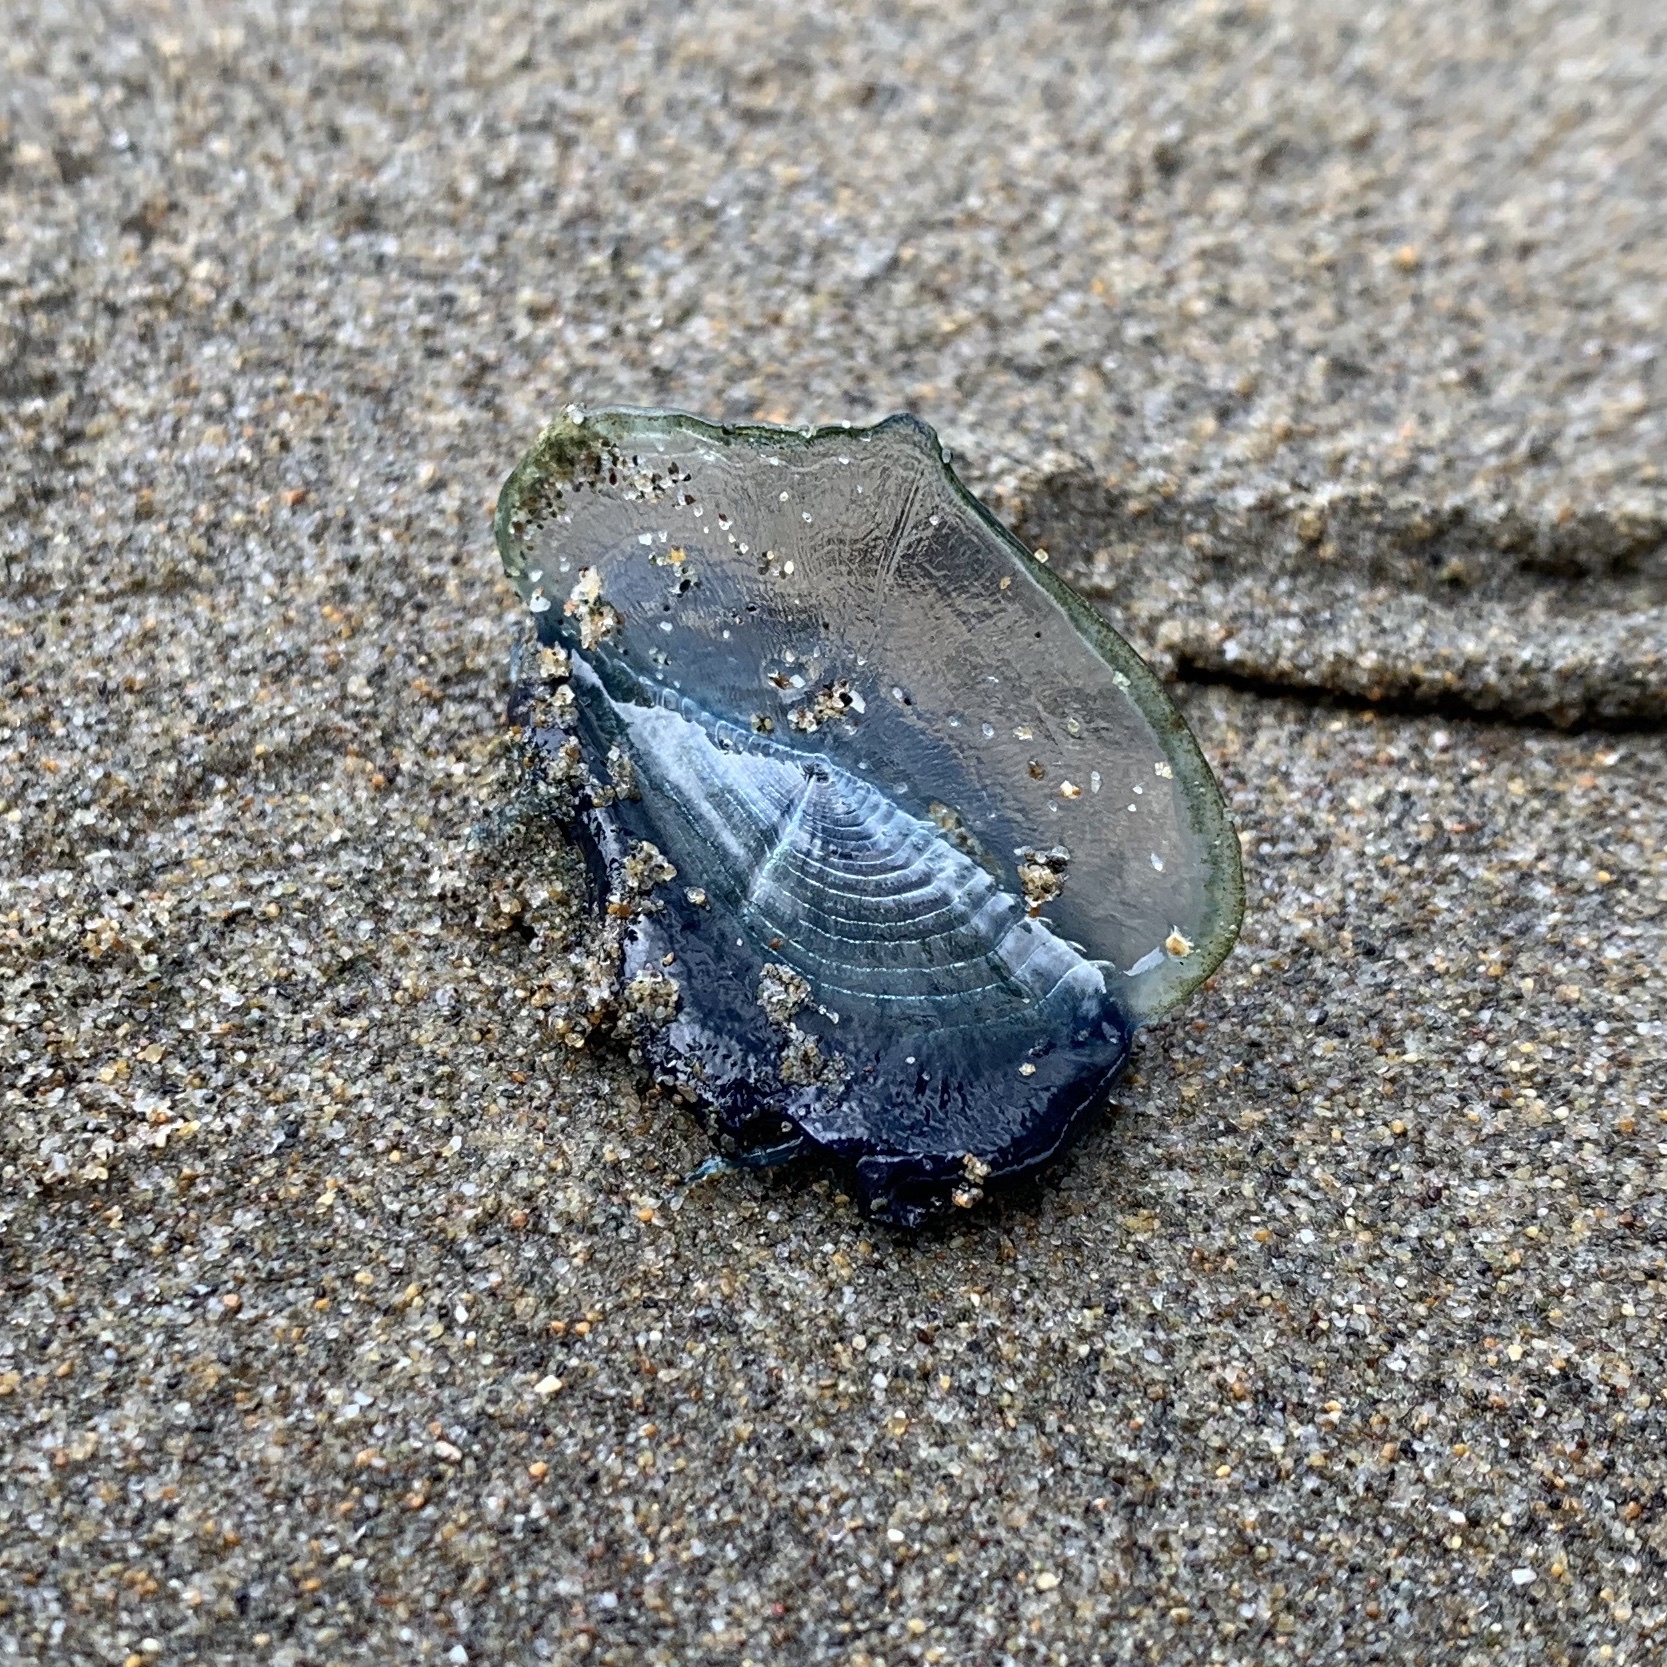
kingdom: Animalia
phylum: Cnidaria
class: Hydrozoa
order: Anthoathecata
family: Porpitidae
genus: Velella
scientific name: Velella velella
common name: By-the-wind-sailor
